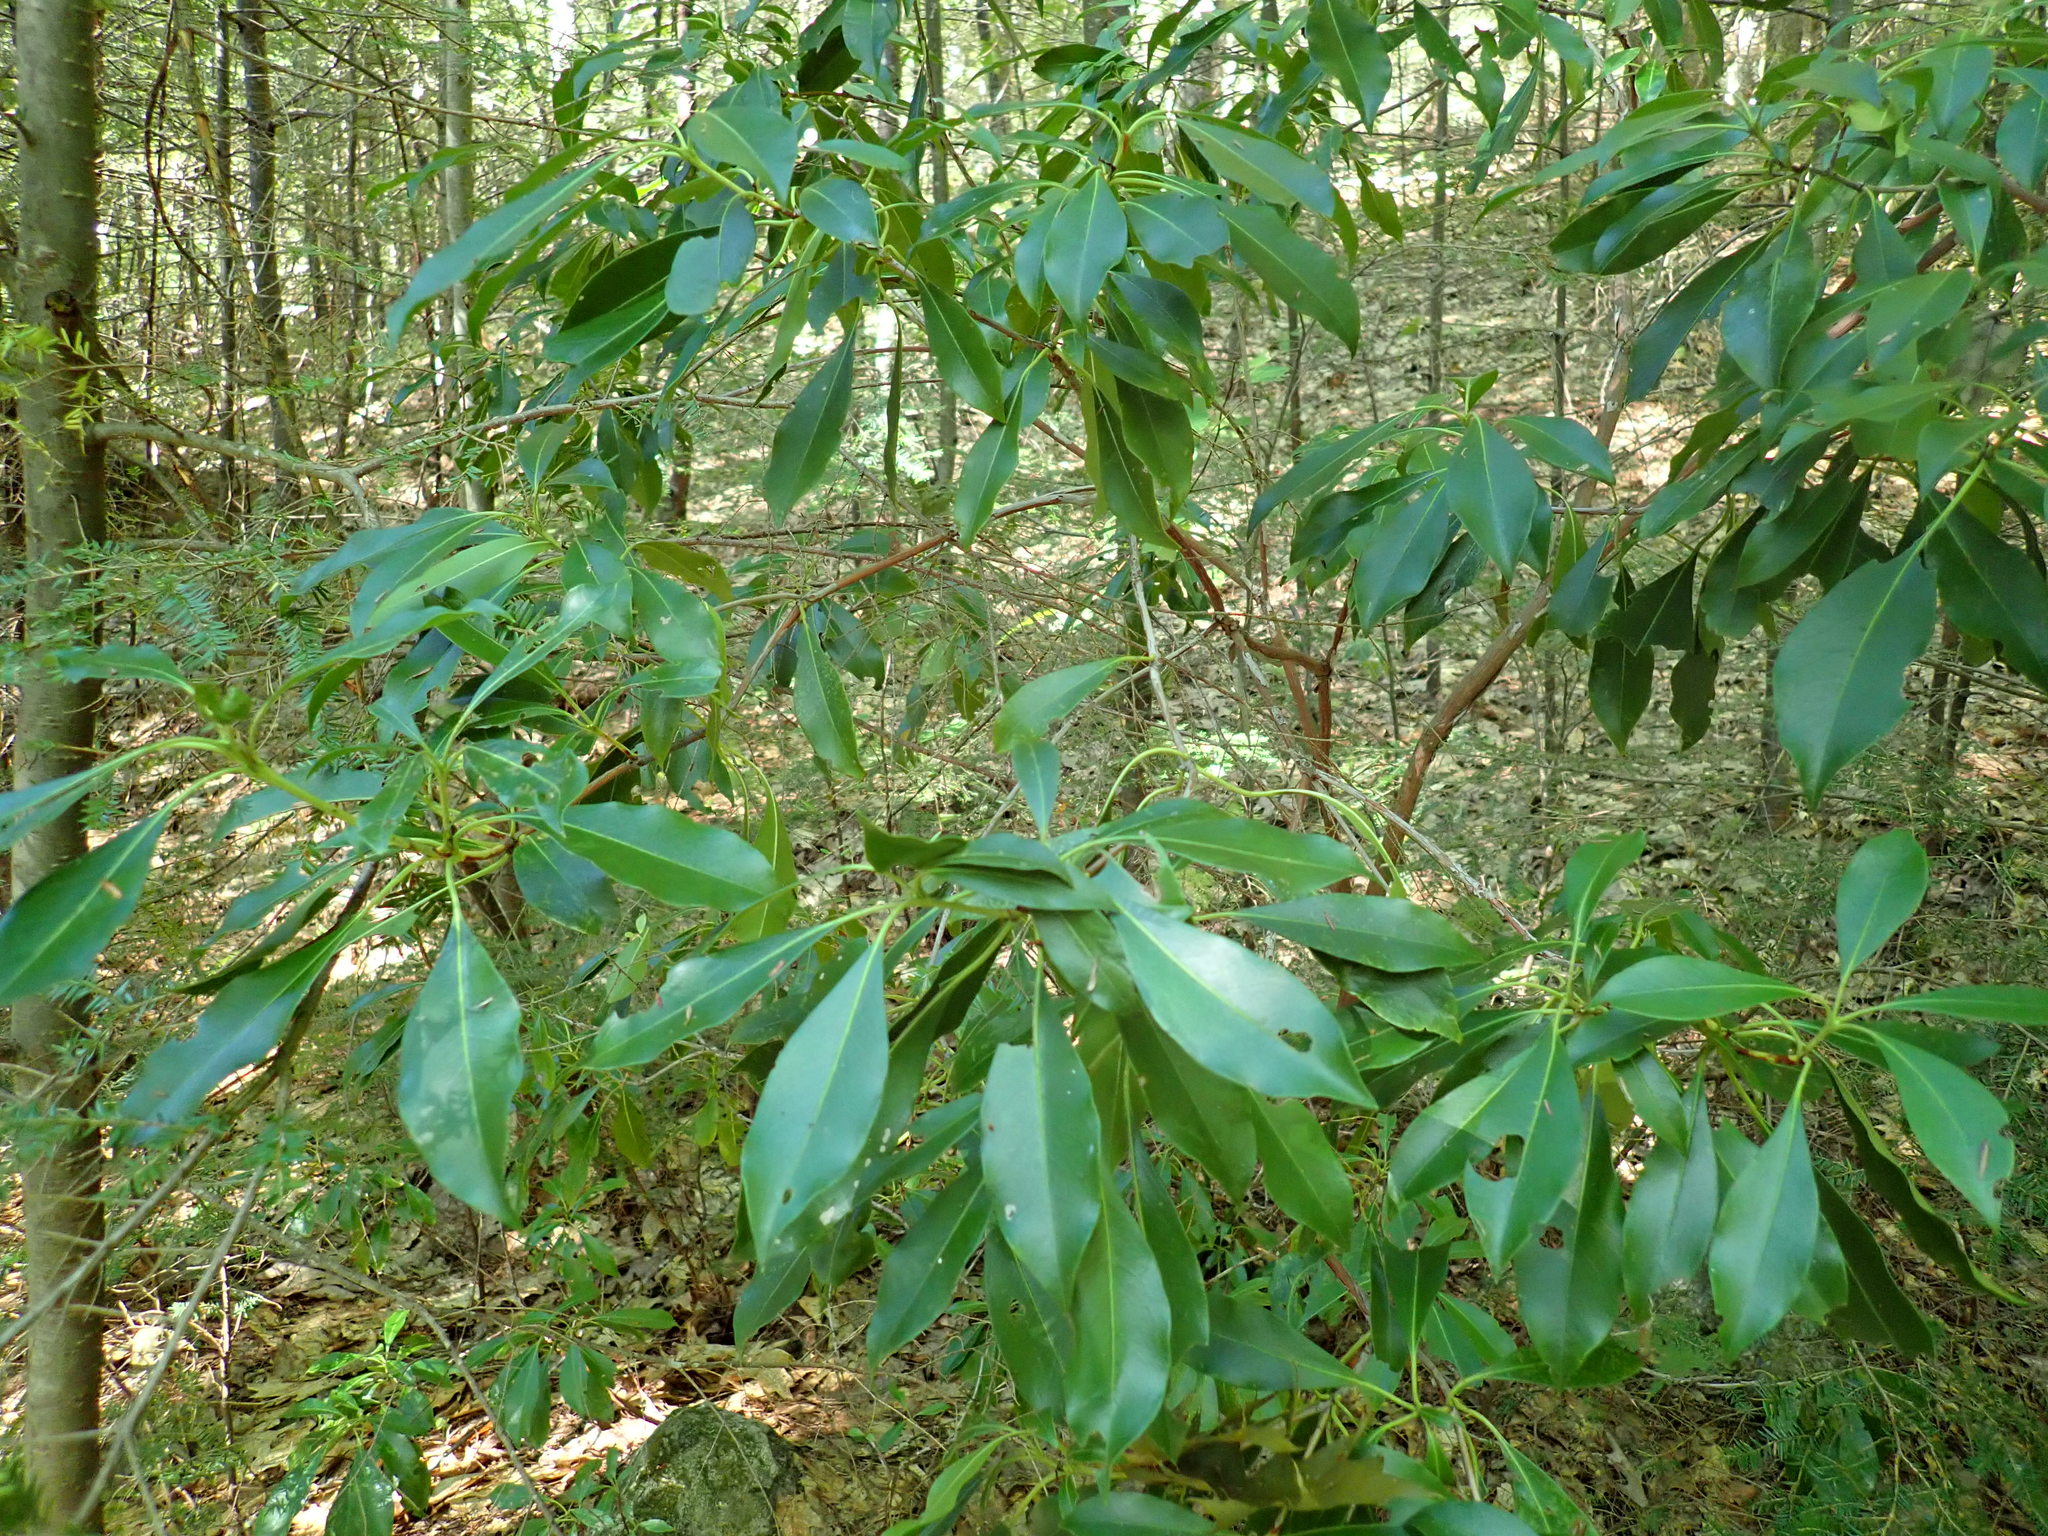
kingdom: Plantae
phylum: Tracheophyta
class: Magnoliopsida
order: Ericales
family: Ericaceae
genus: Kalmia
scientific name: Kalmia latifolia
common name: Mountain-laurel
